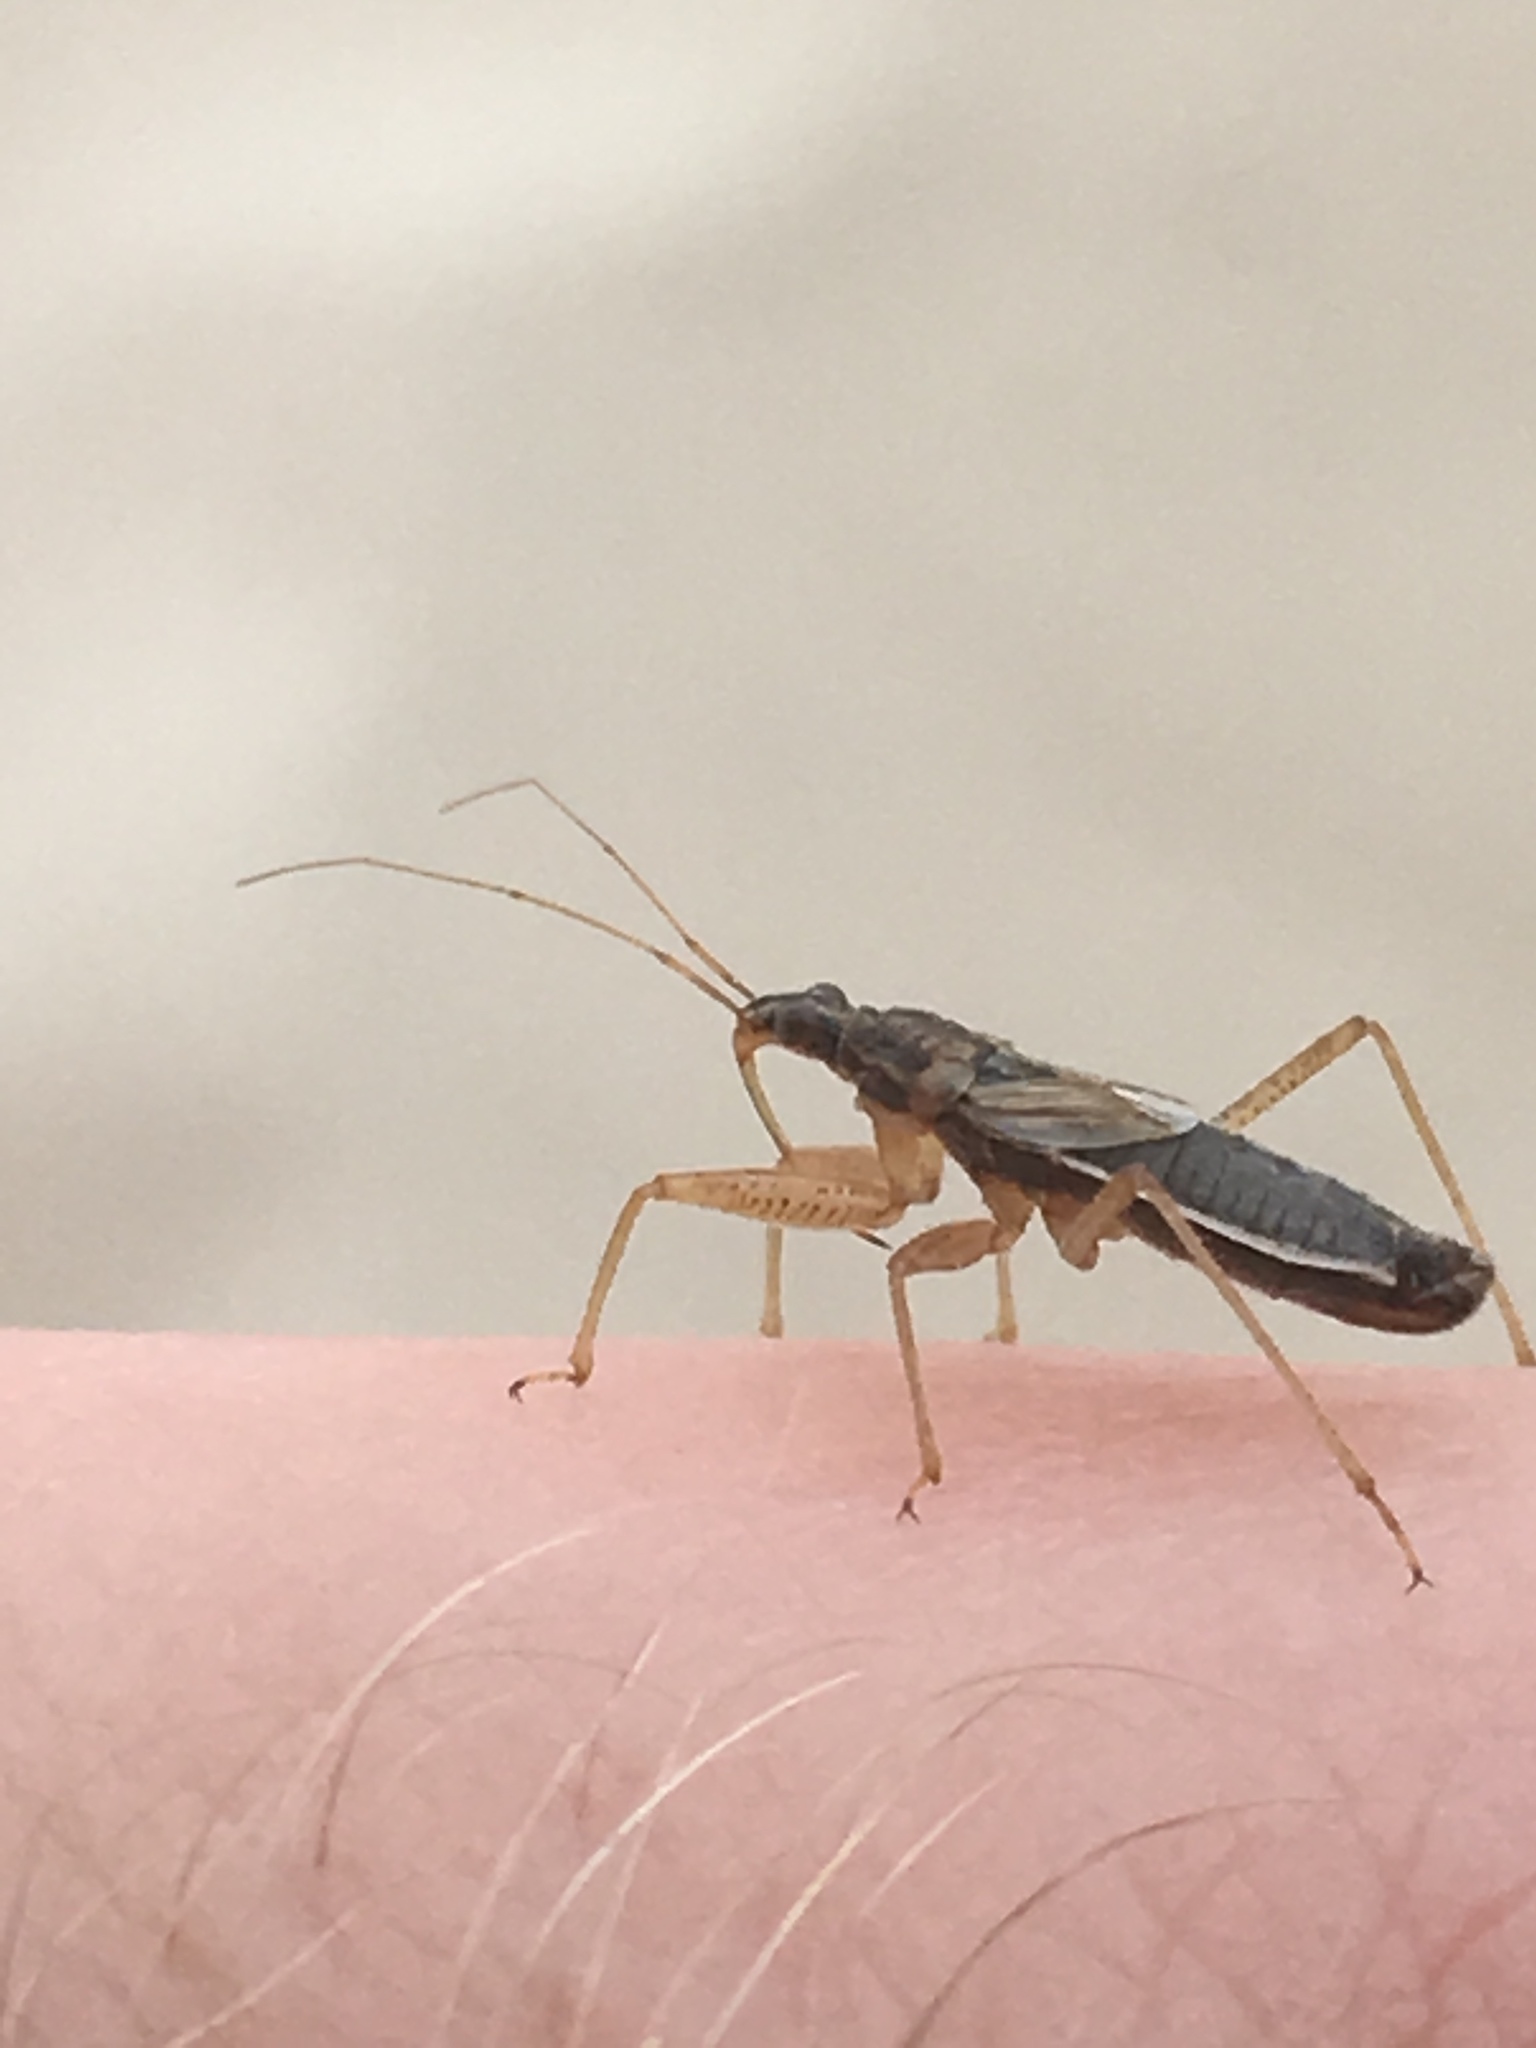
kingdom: Animalia
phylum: Arthropoda
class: Insecta
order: Hemiptera
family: Nabidae
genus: Nabis
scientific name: Nabis flavomarginatus
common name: Broad damselbug
